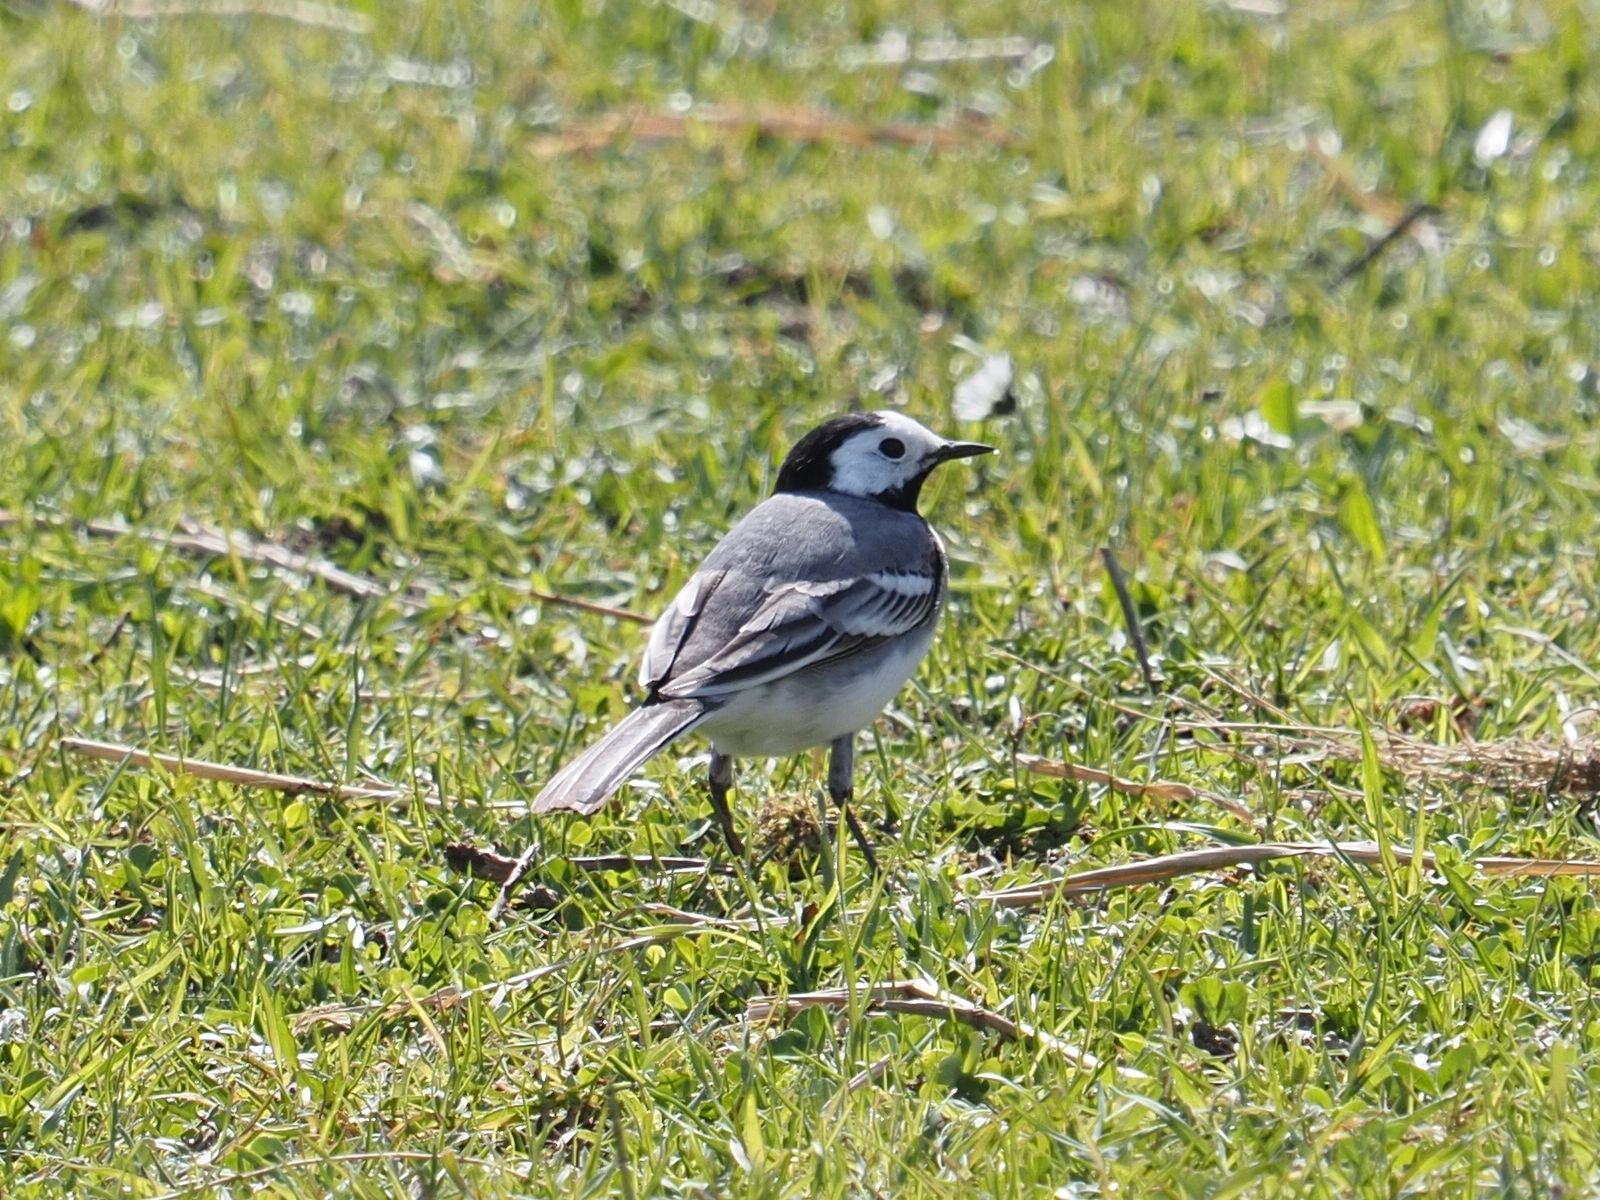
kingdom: Animalia
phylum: Chordata
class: Aves
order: Passeriformes
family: Motacillidae
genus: Motacilla
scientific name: Motacilla alba
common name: White wagtail
